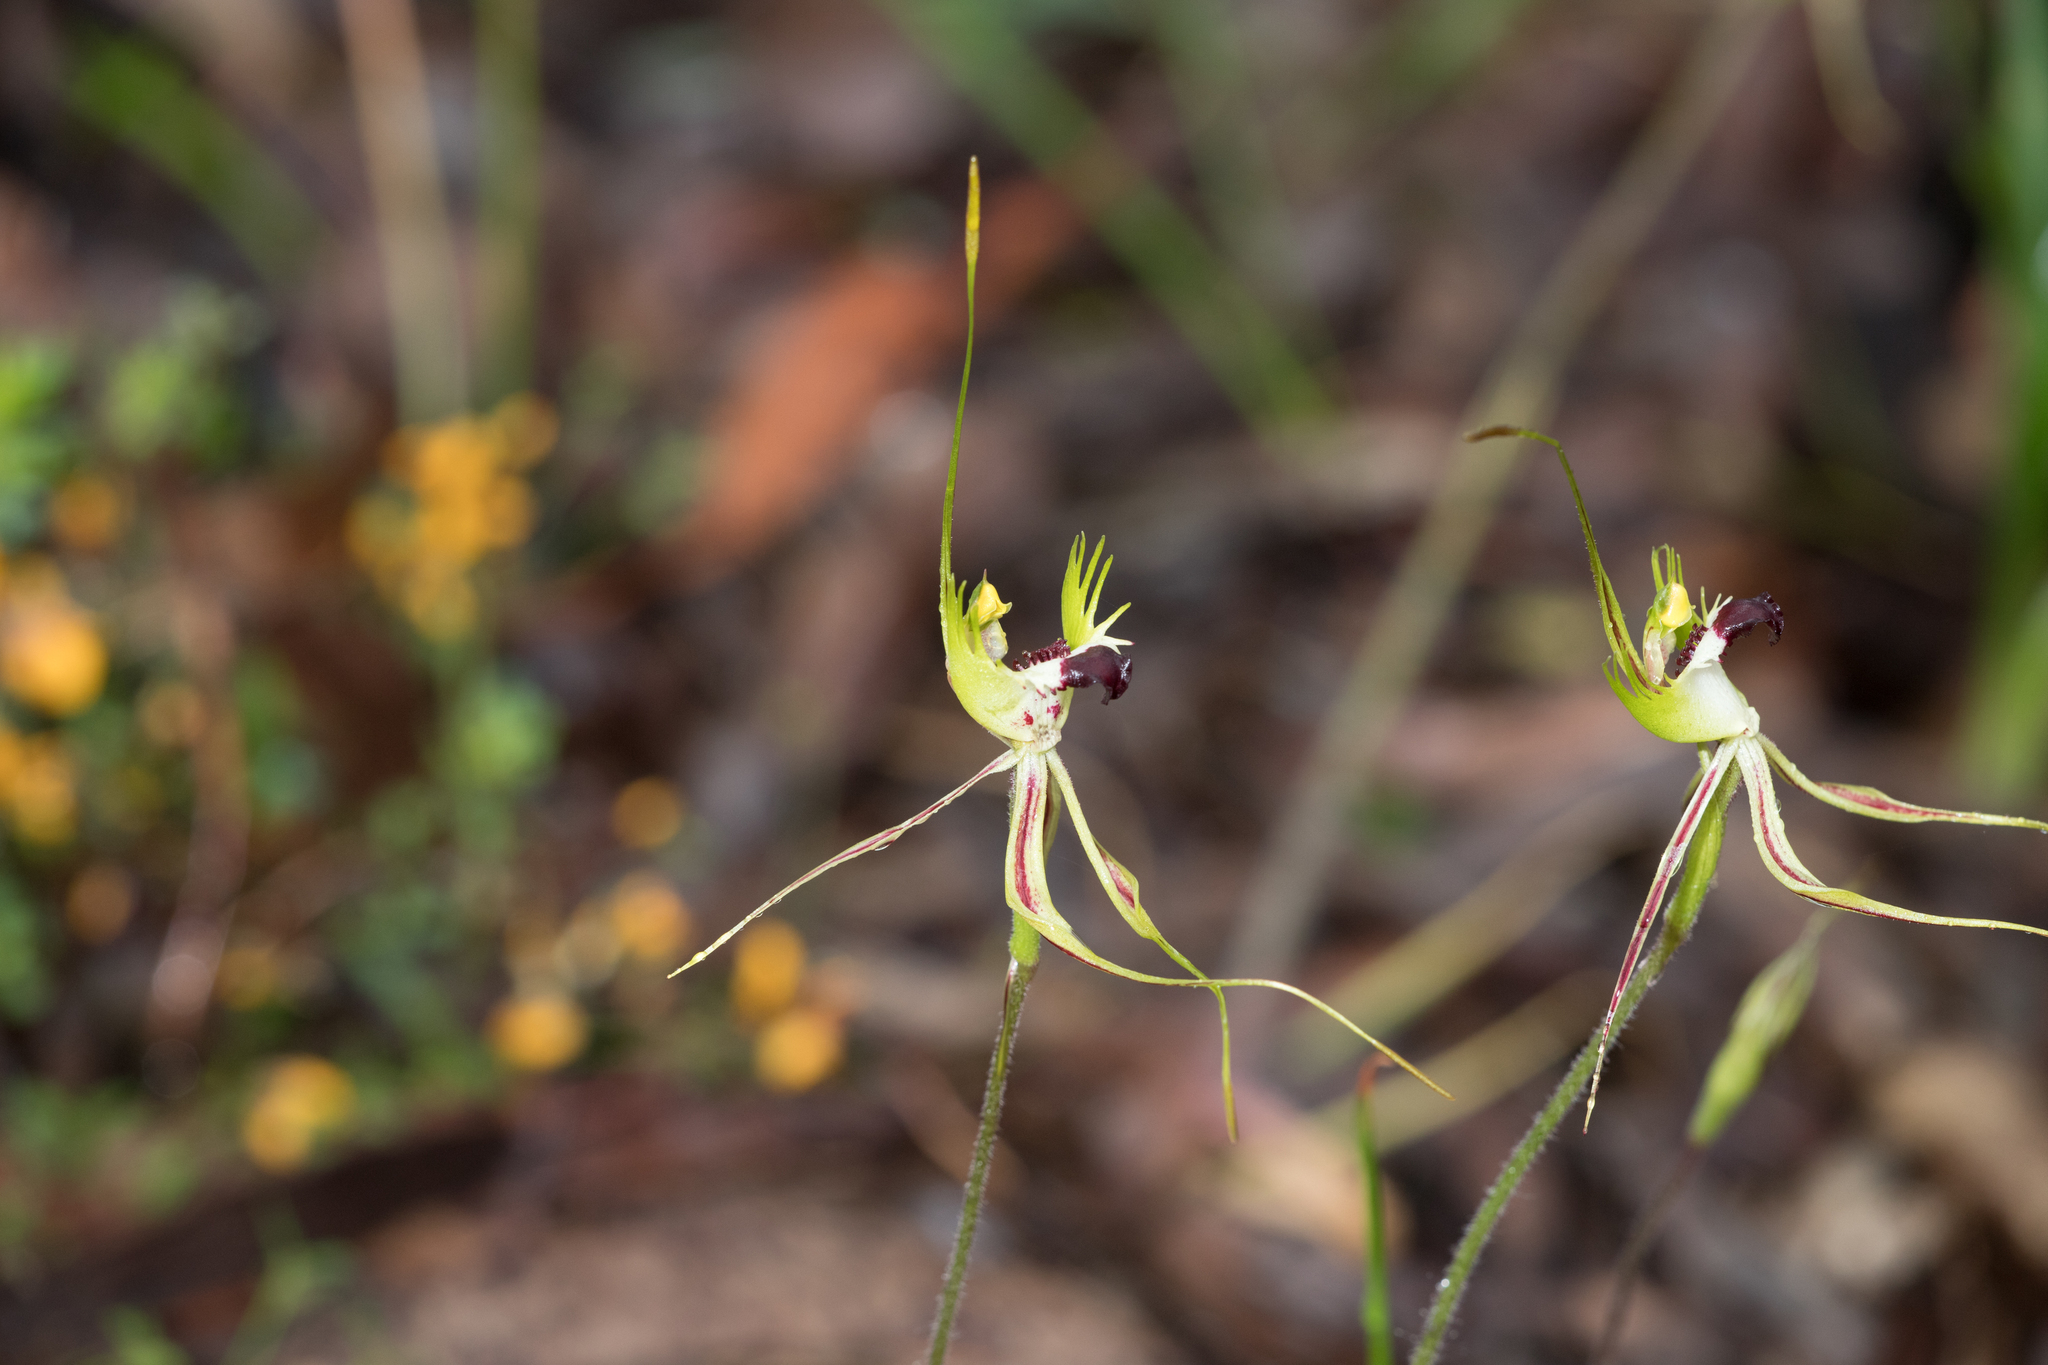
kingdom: Plantae
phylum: Tracheophyta
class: Liliopsida
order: Asparagales
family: Orchidaceae
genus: Caladenia
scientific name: Caladenia tentaculata
